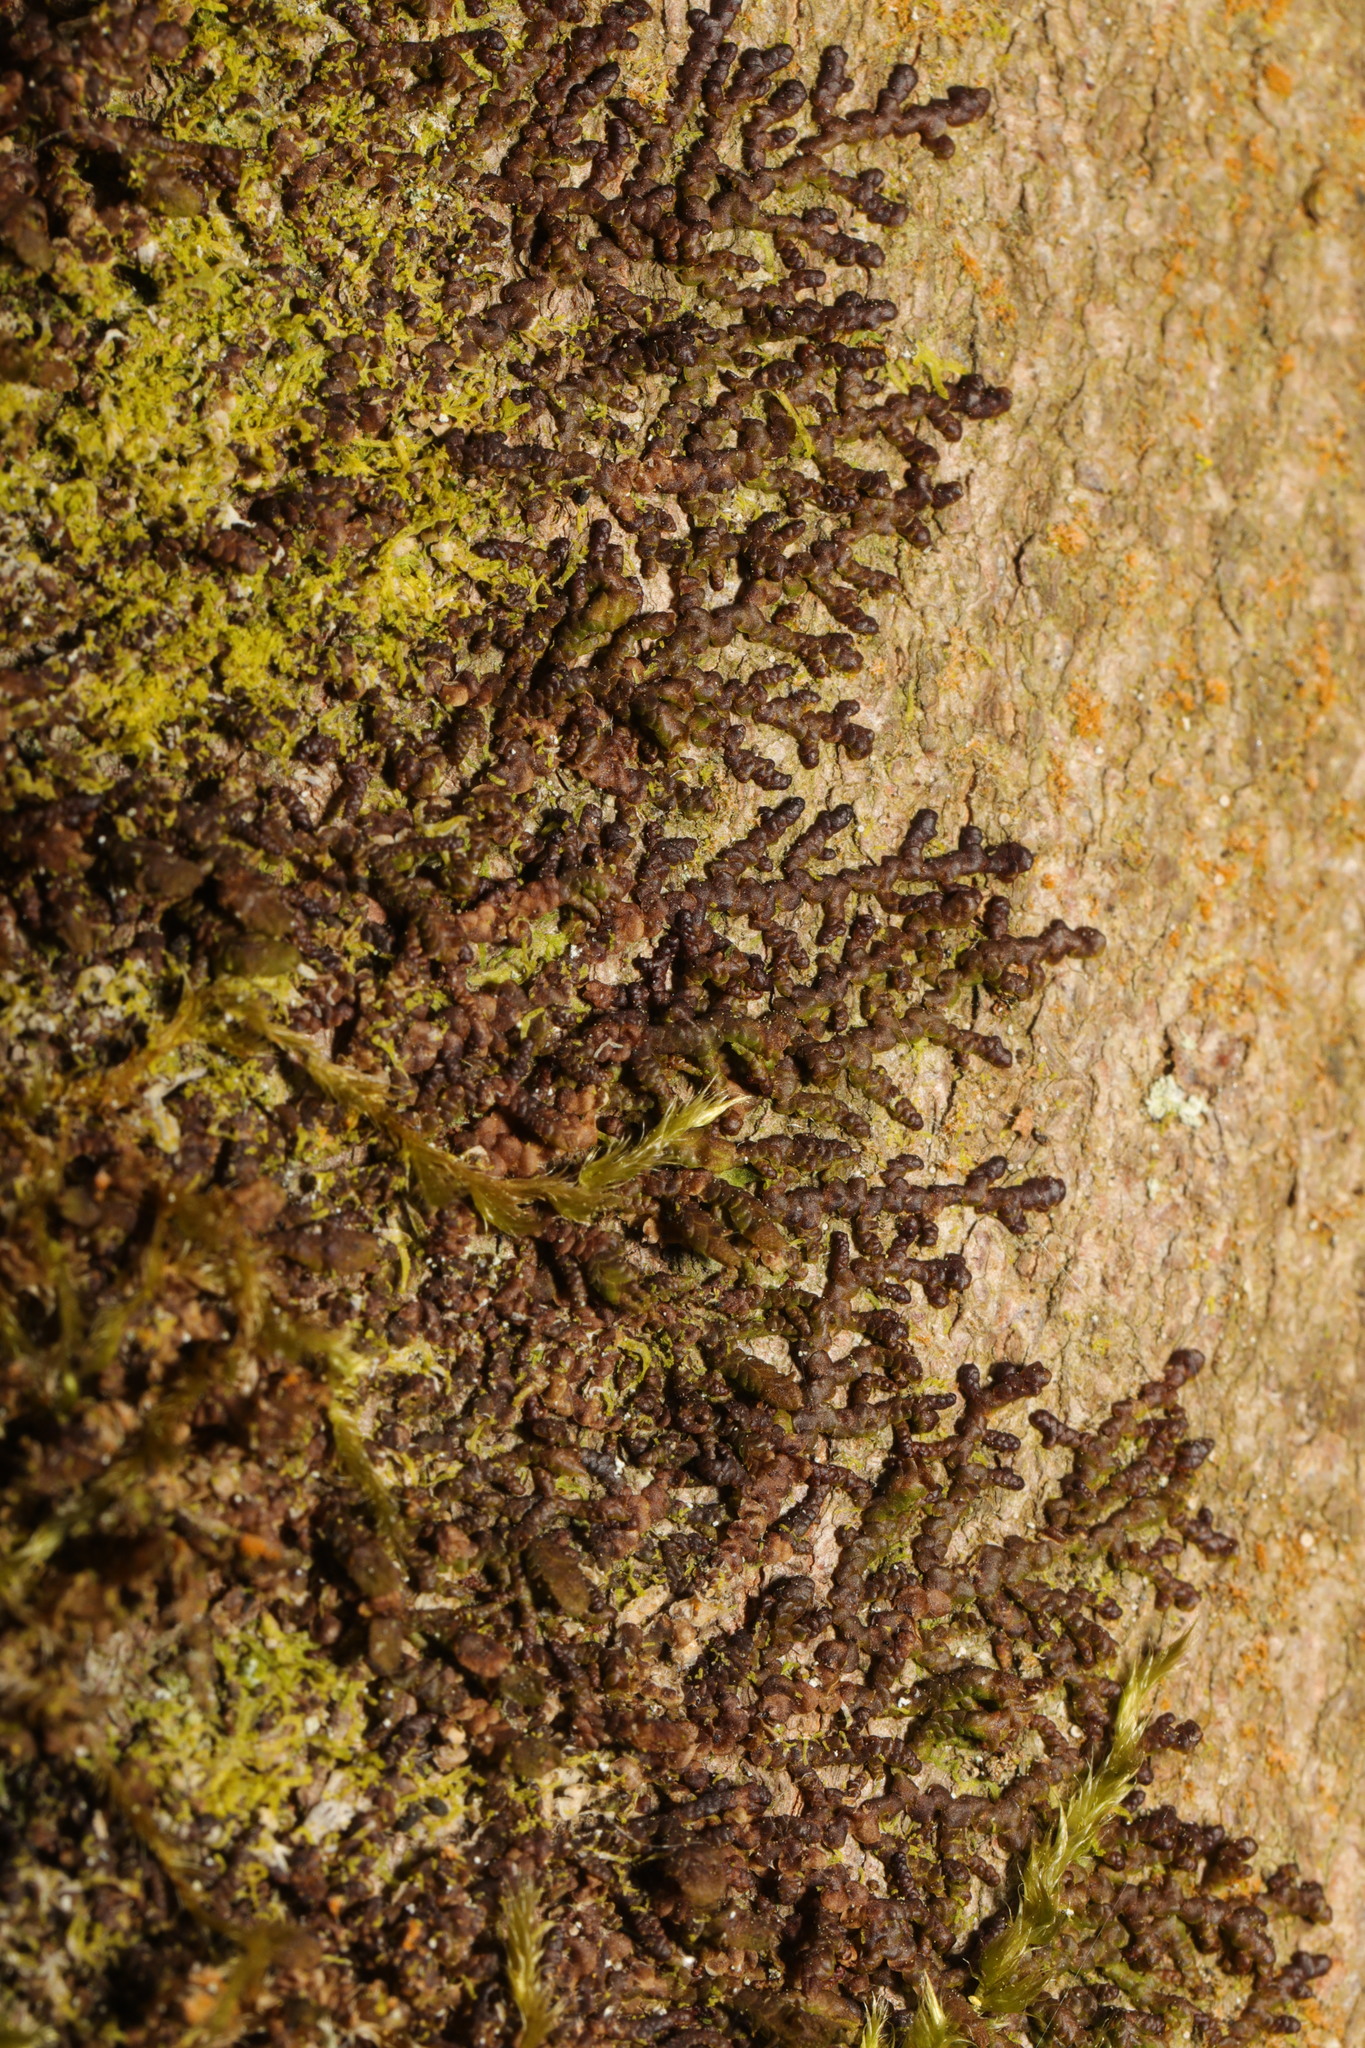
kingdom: Plantae
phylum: Marchantiophyta
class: Jungermanniopsida
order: Porellales
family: Frullaniaceae
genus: Frullania
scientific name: Frullania dilatata
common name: Dilated scalewort
